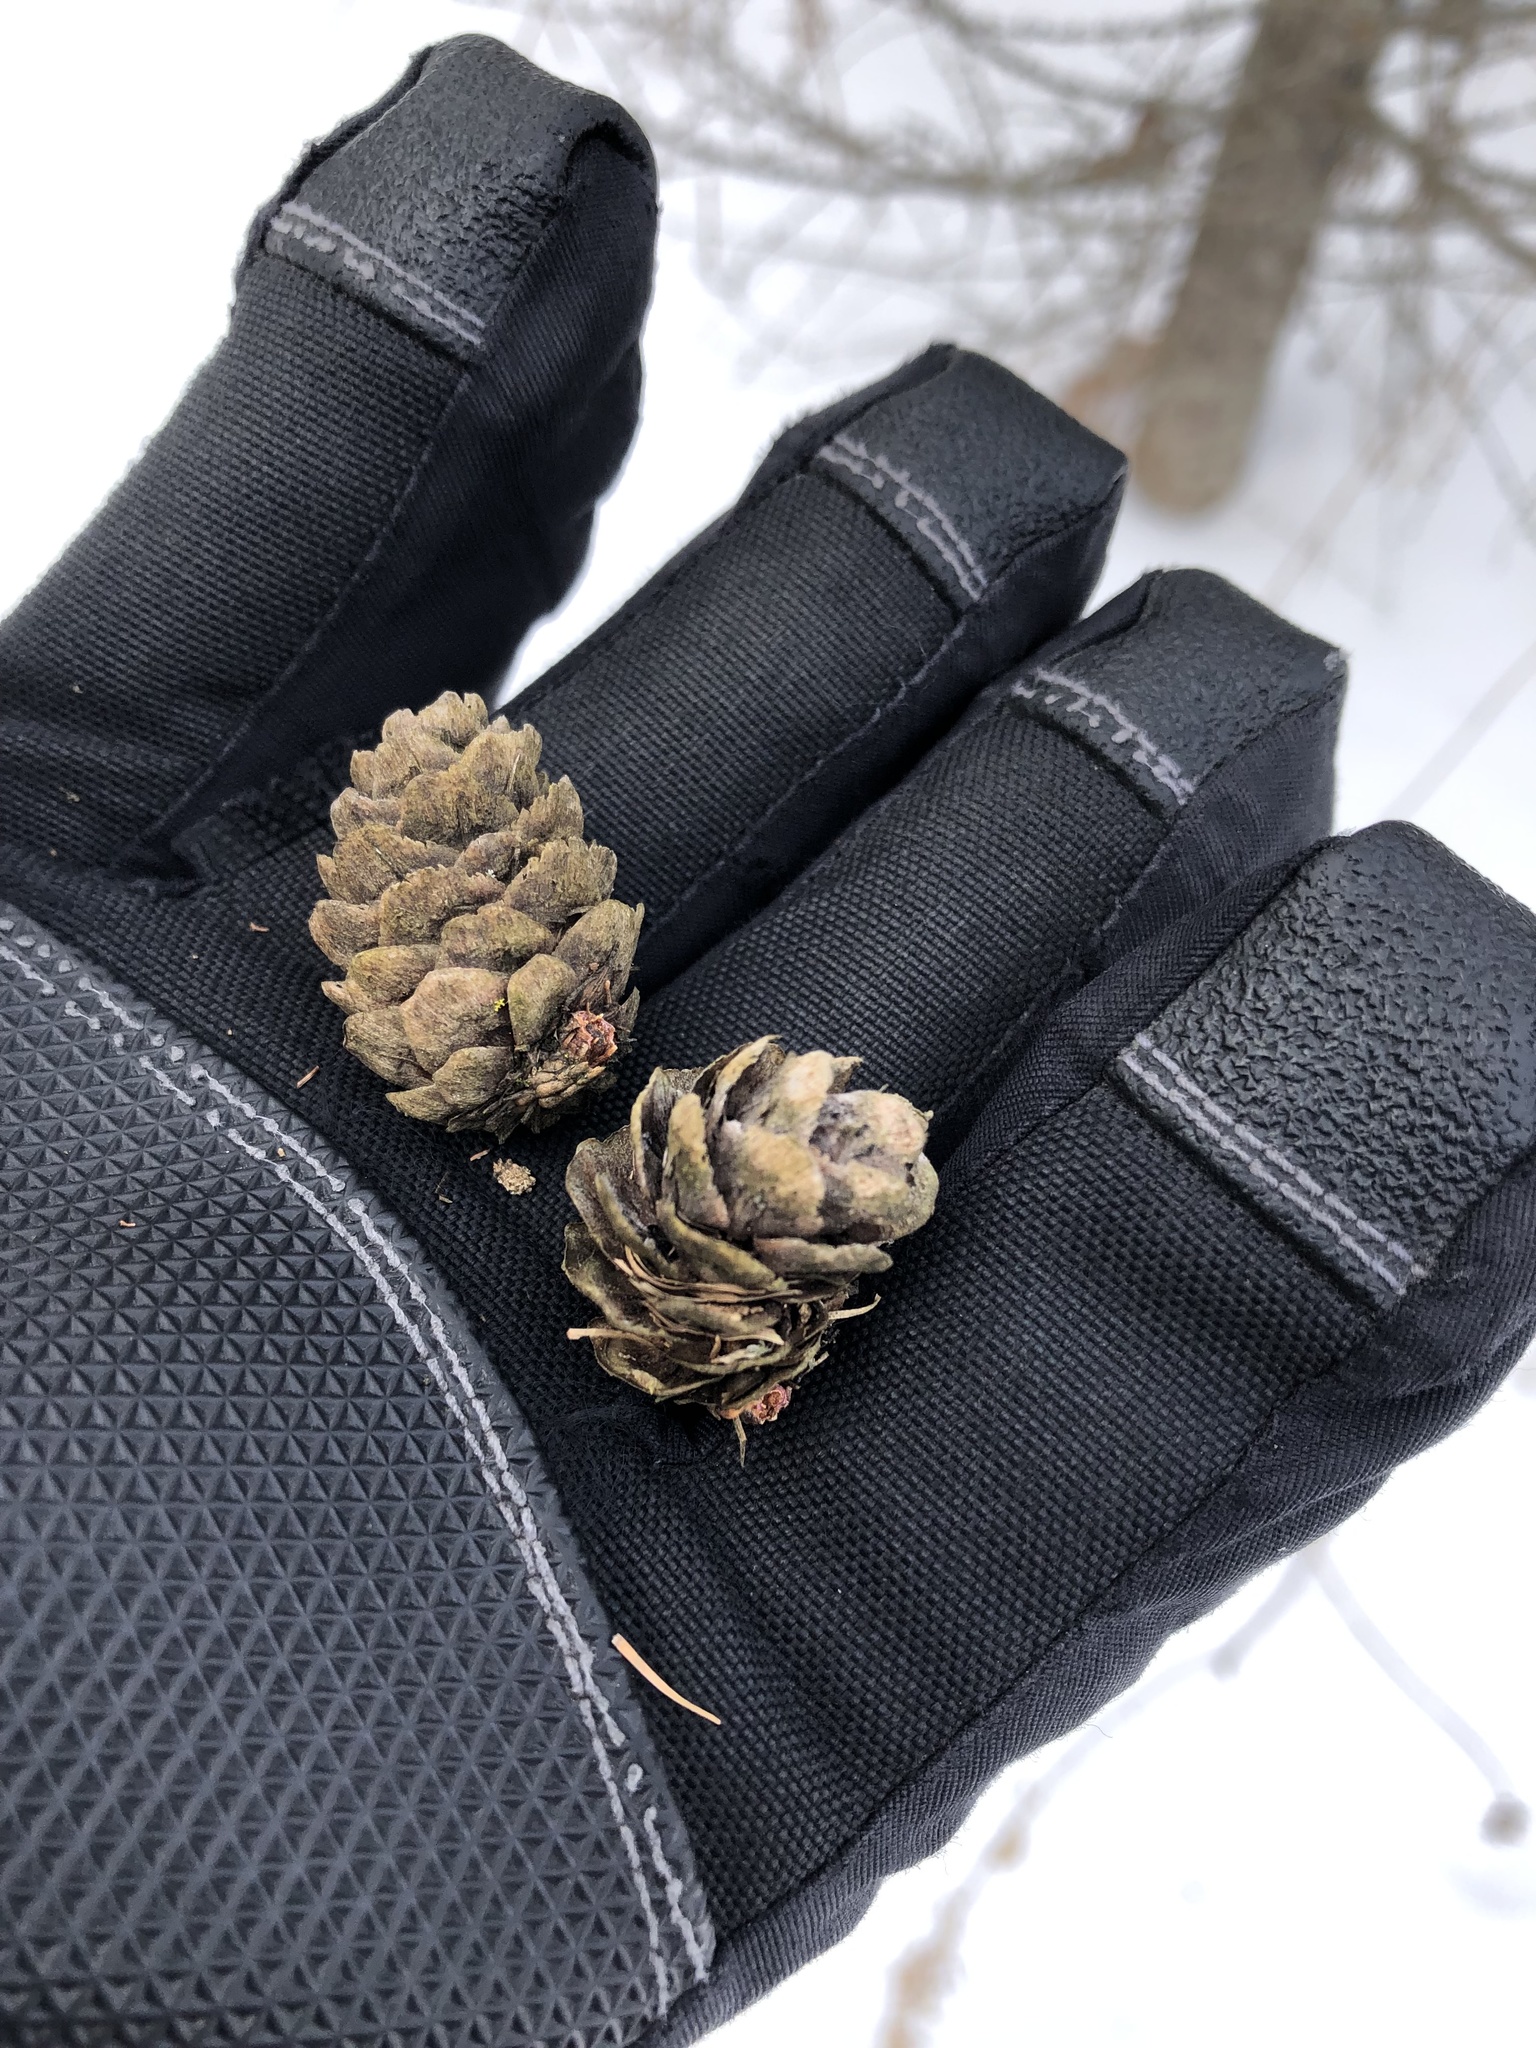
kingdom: Plantae
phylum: Tracheophyta
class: Pinopsida
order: Pinales
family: Pinaceae
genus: Larix
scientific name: Larix decidua
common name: European larch
